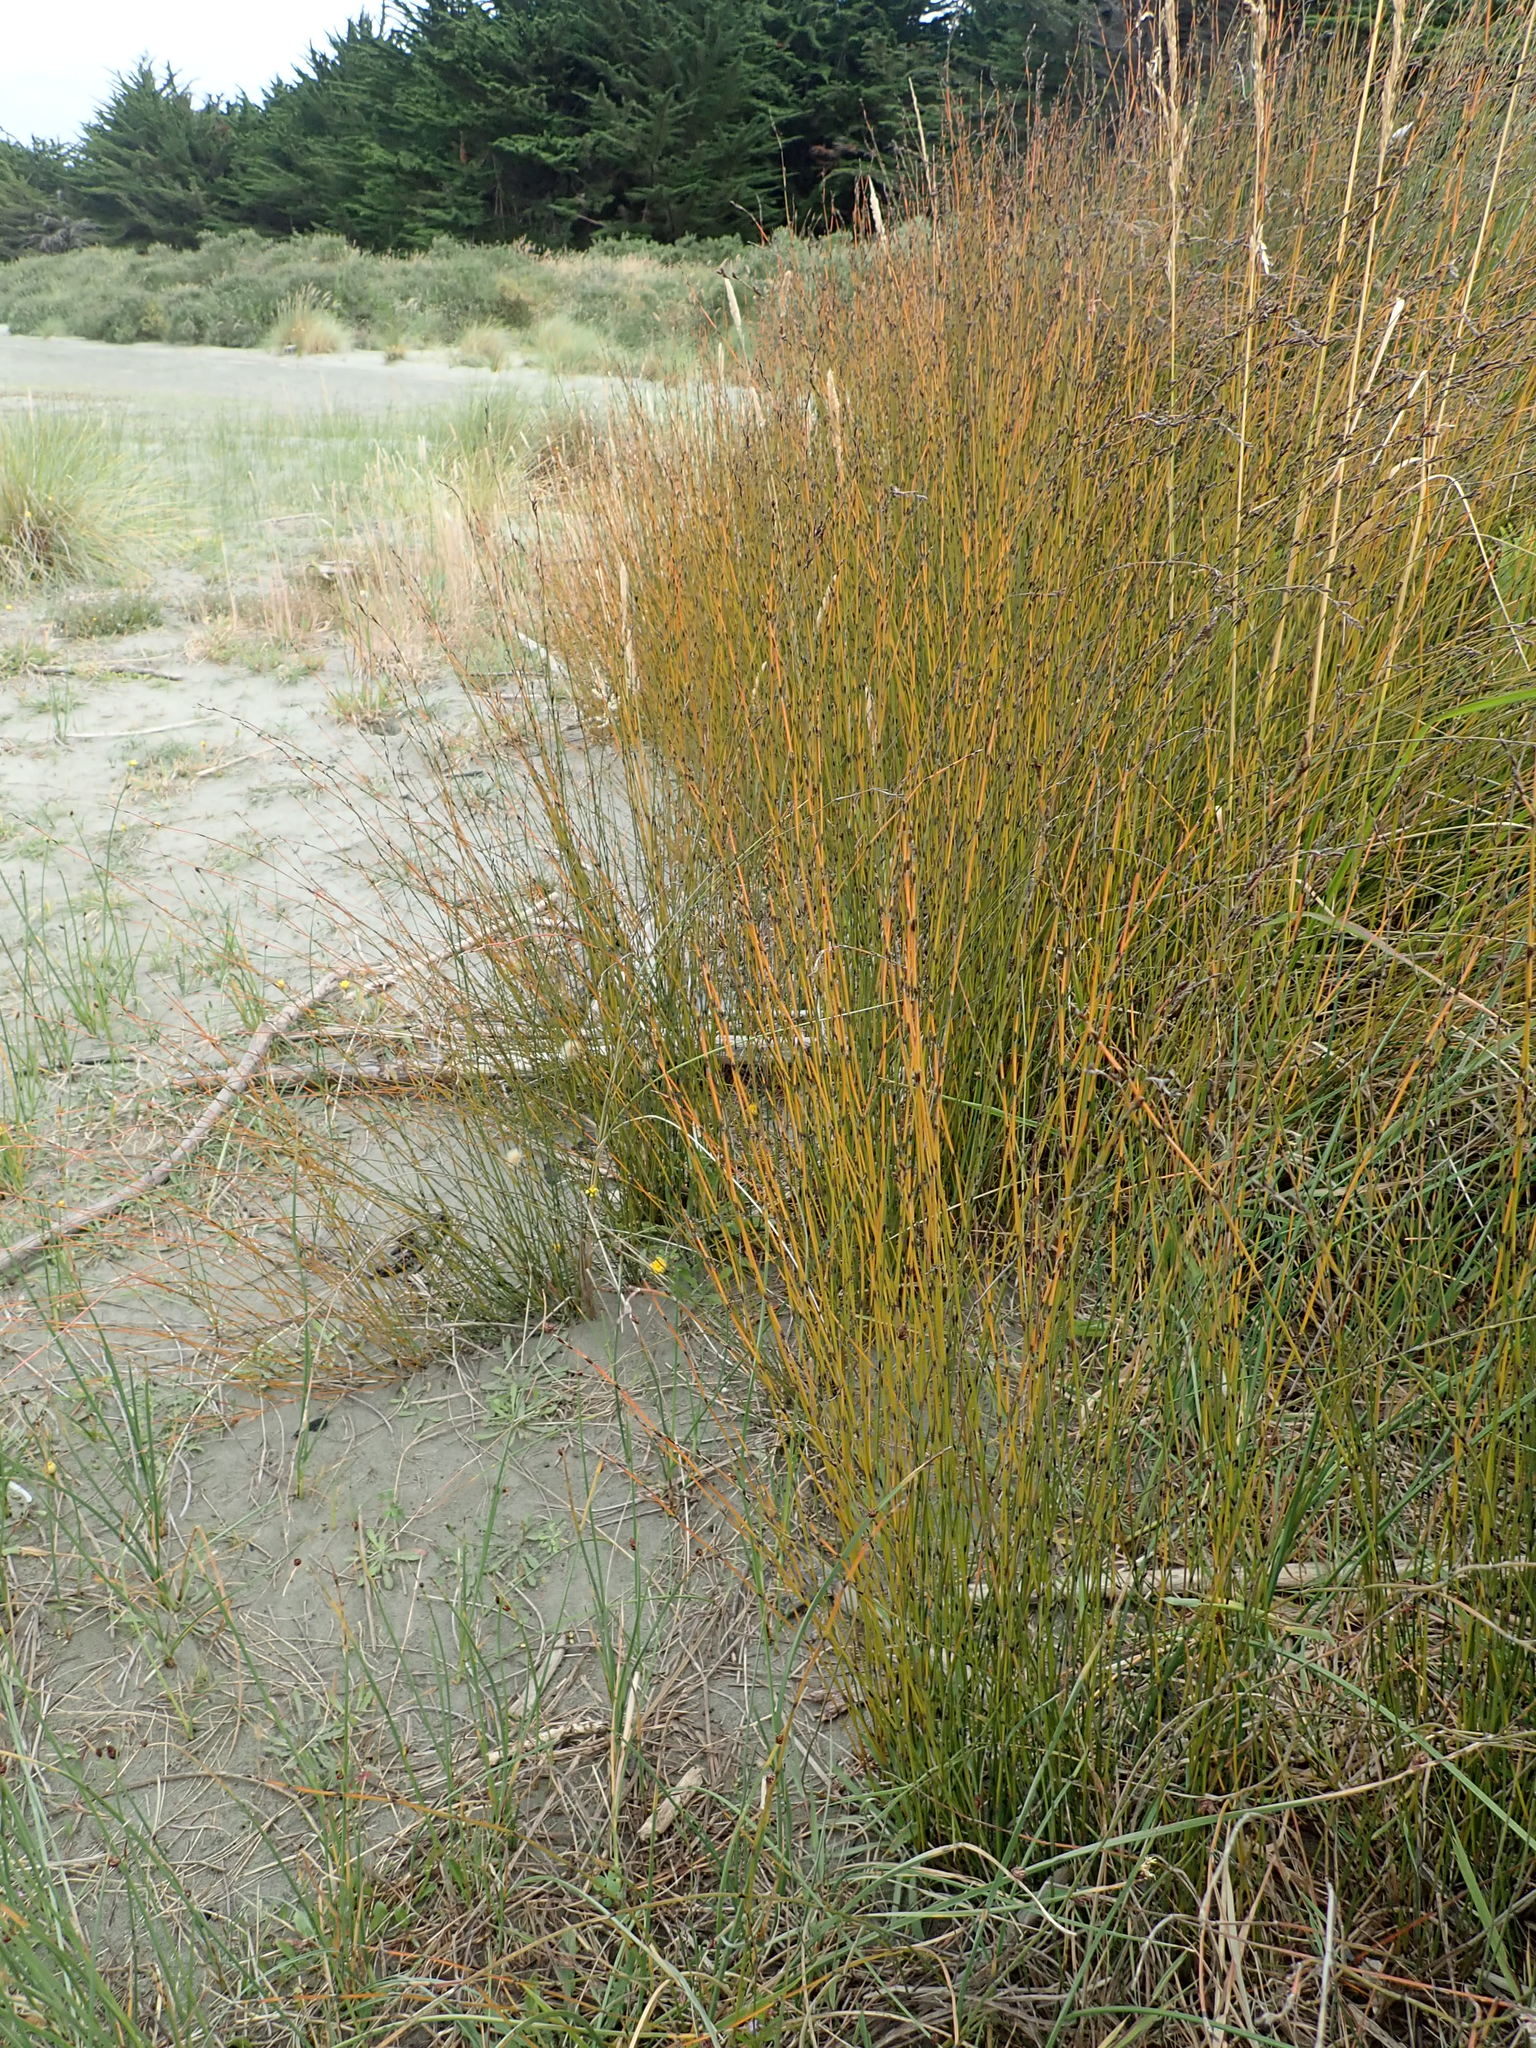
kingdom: Plantae
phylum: Tracheophyta
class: Liliopsida
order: Poales
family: Restionaceae
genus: Apodasmia
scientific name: Apodasmia similis
